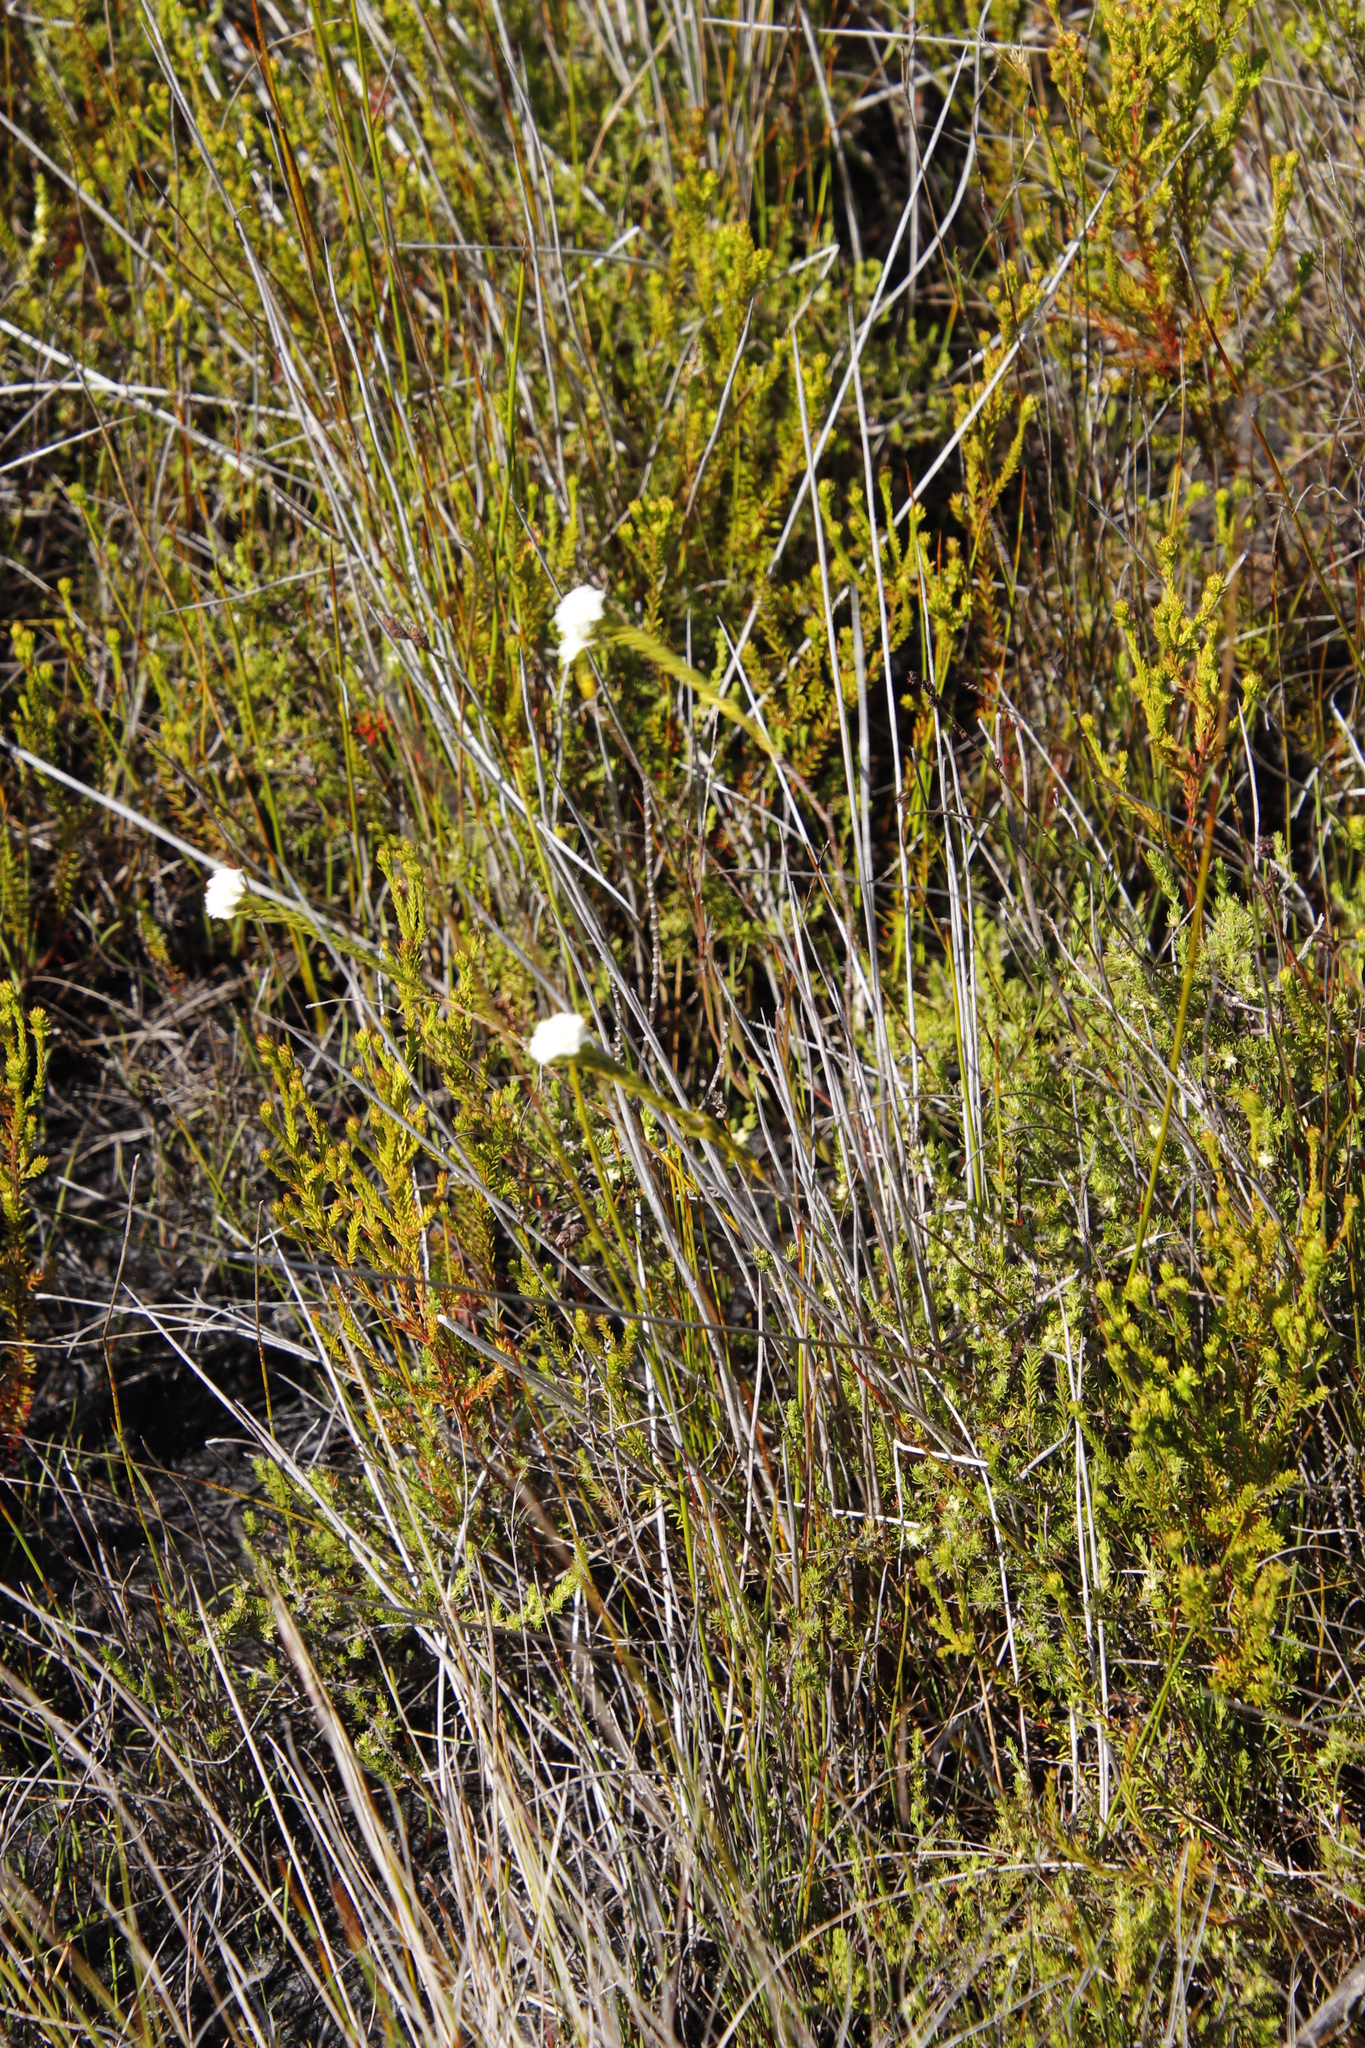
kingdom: Plantae
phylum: Tracheophyta
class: Magnoliopsida
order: Malvales
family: Thymelaeaceae
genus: Lachnaea
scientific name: Lachnaea densiflora
